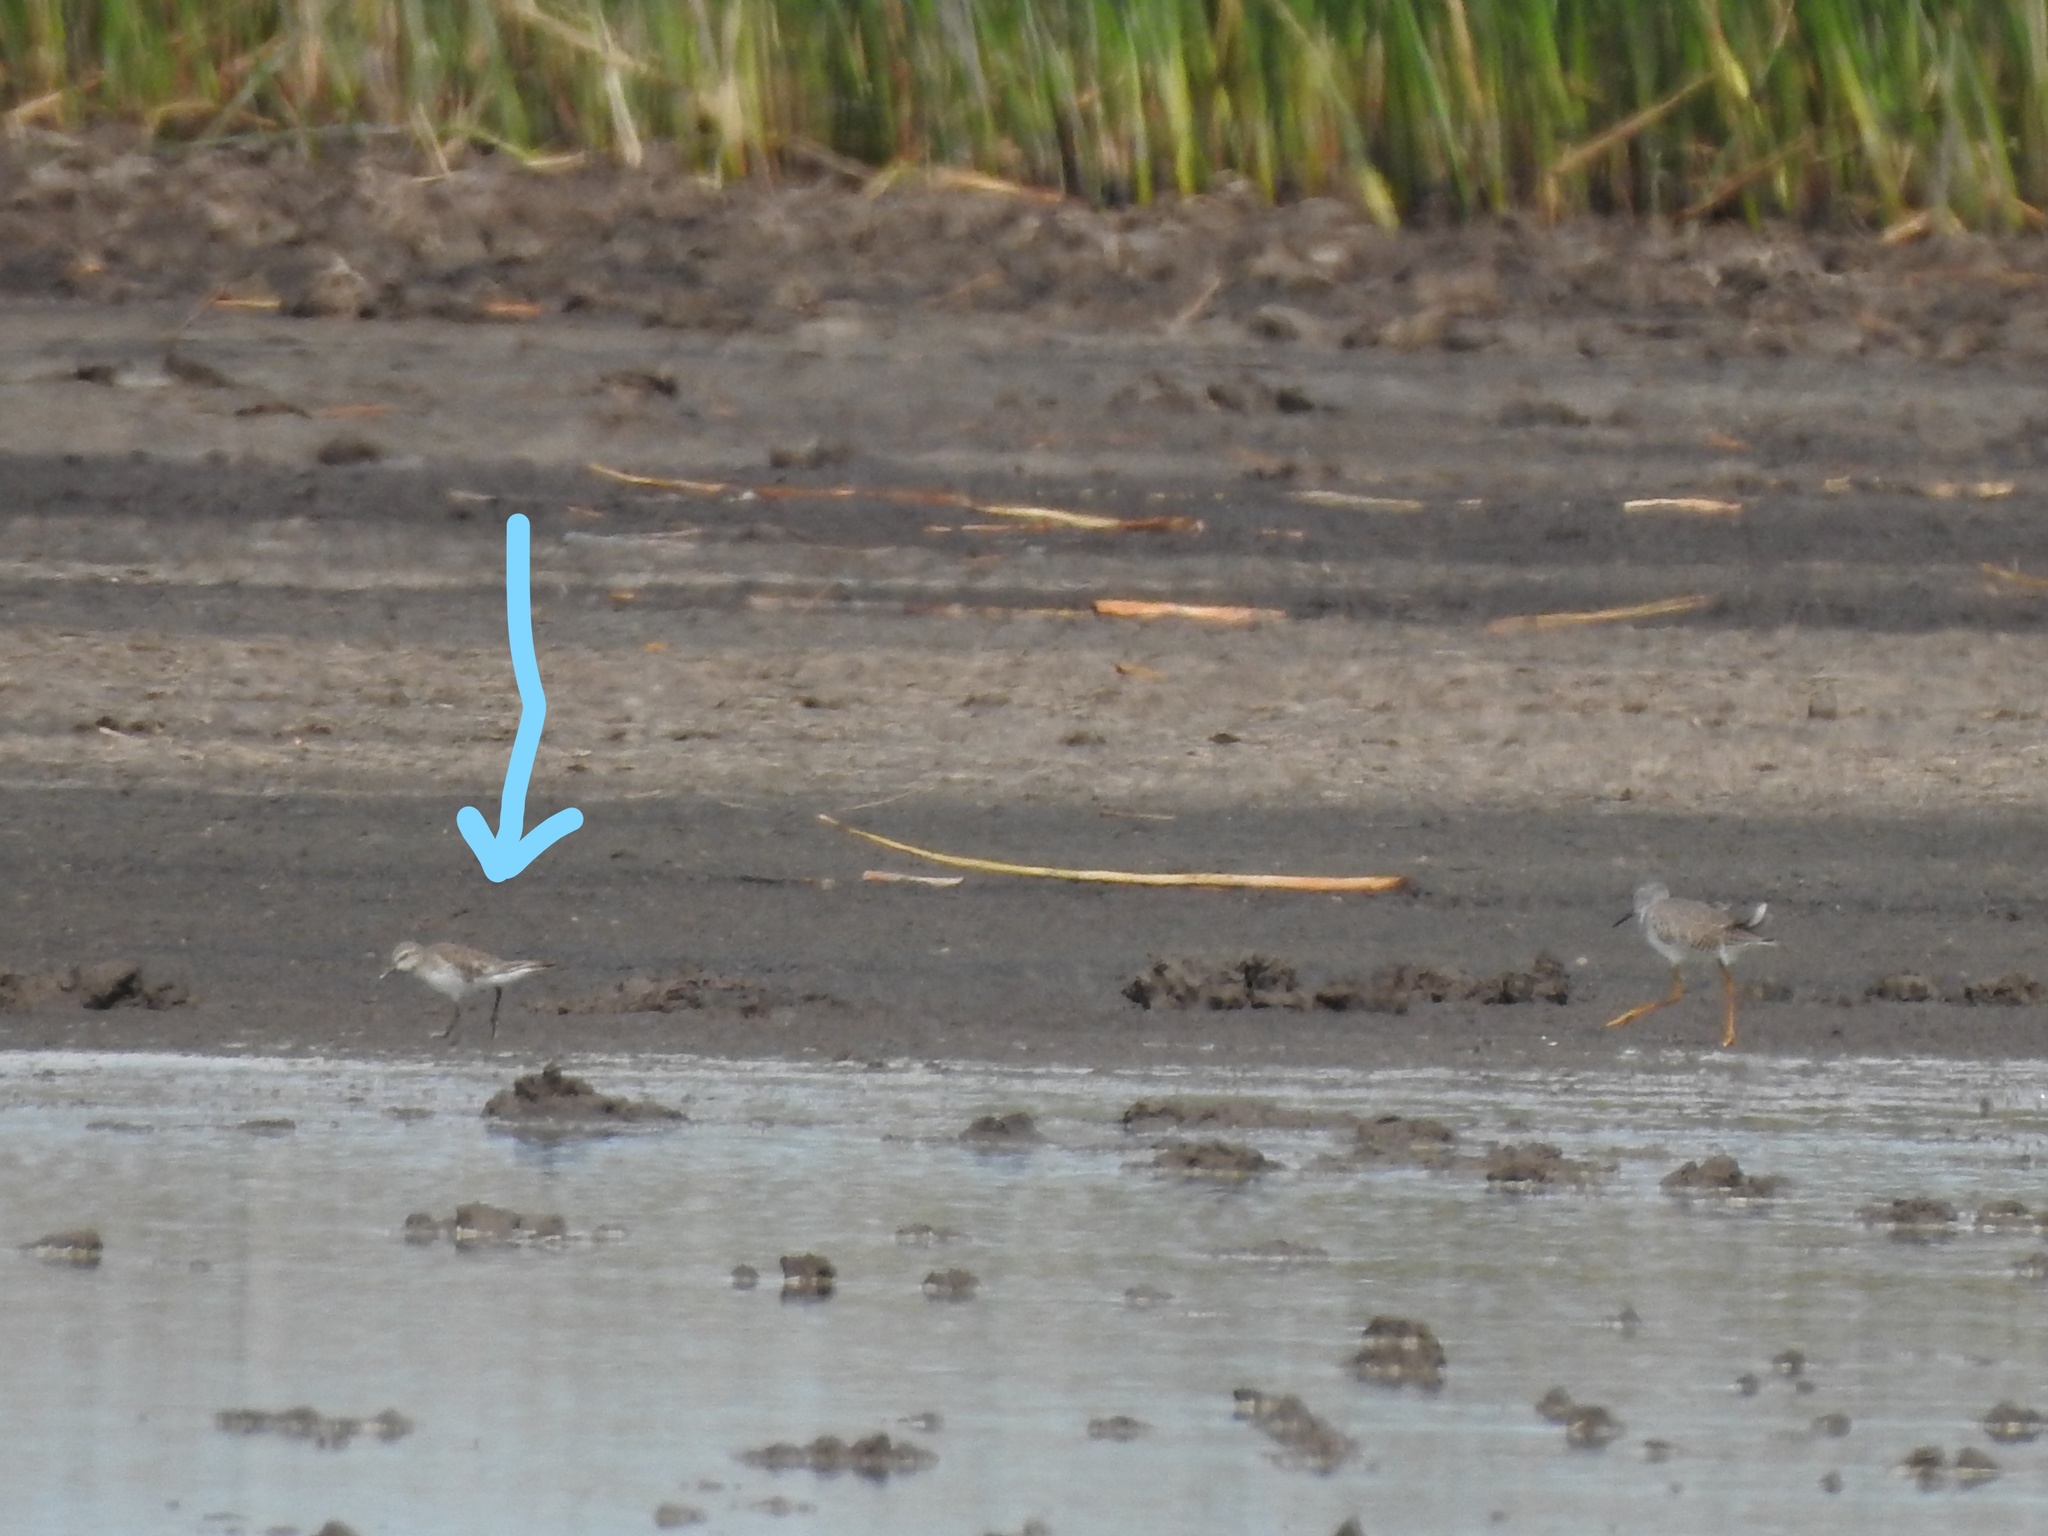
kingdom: Animalia
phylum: Chordata
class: Aves
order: Charadriiformes
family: Scolopacidae
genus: Calidris
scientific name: Calidris fuscicollis
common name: White-rumped sandpiper
